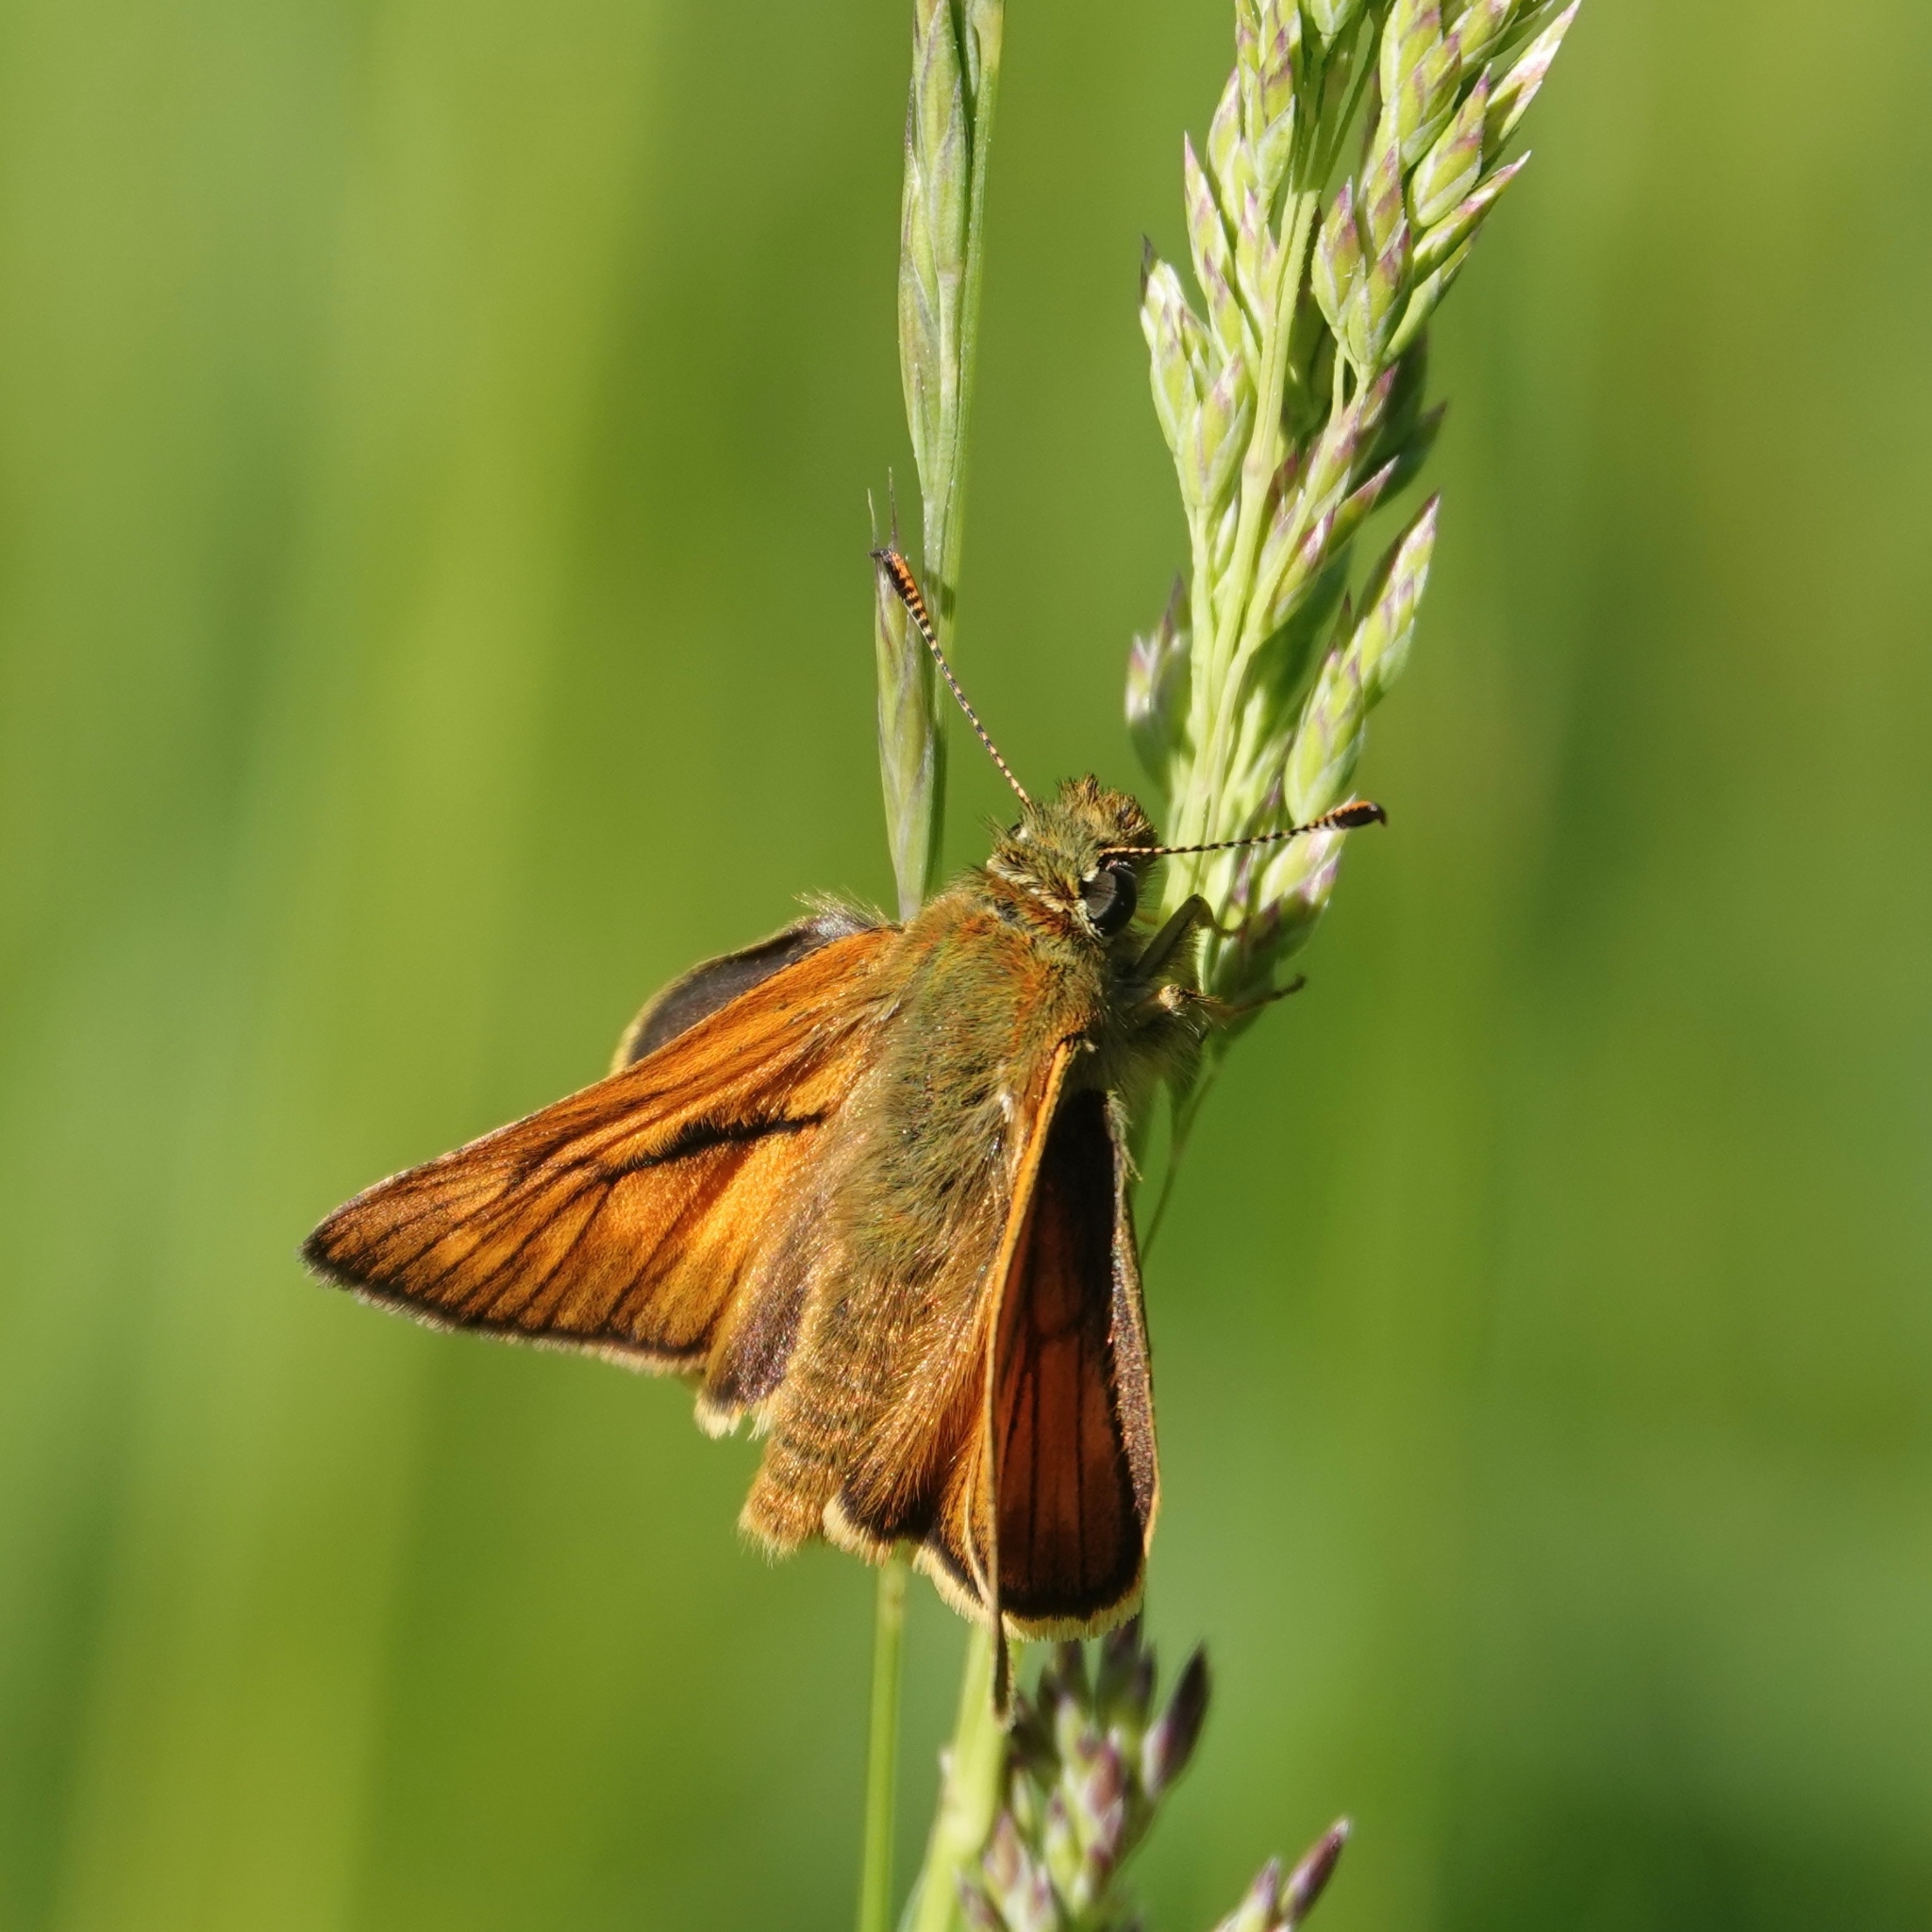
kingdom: Animalia
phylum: Arthropoda
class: Insecta
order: Lepidoptera
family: Hesperiidae
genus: Ochlodes
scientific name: Ochlodes venata
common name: Large skipper
